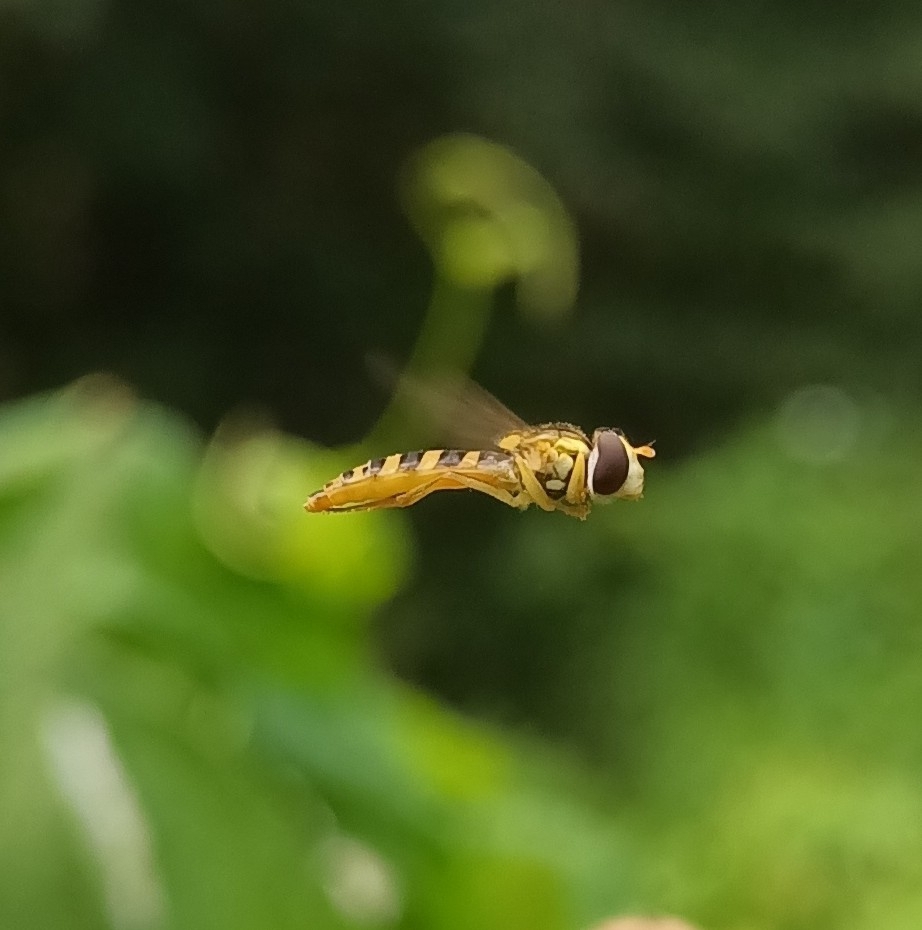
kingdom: Animalia
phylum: Arthropoda
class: Insecta
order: Diptera
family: Syrphidae
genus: Sphaerophoria
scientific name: Sphaerophoria
